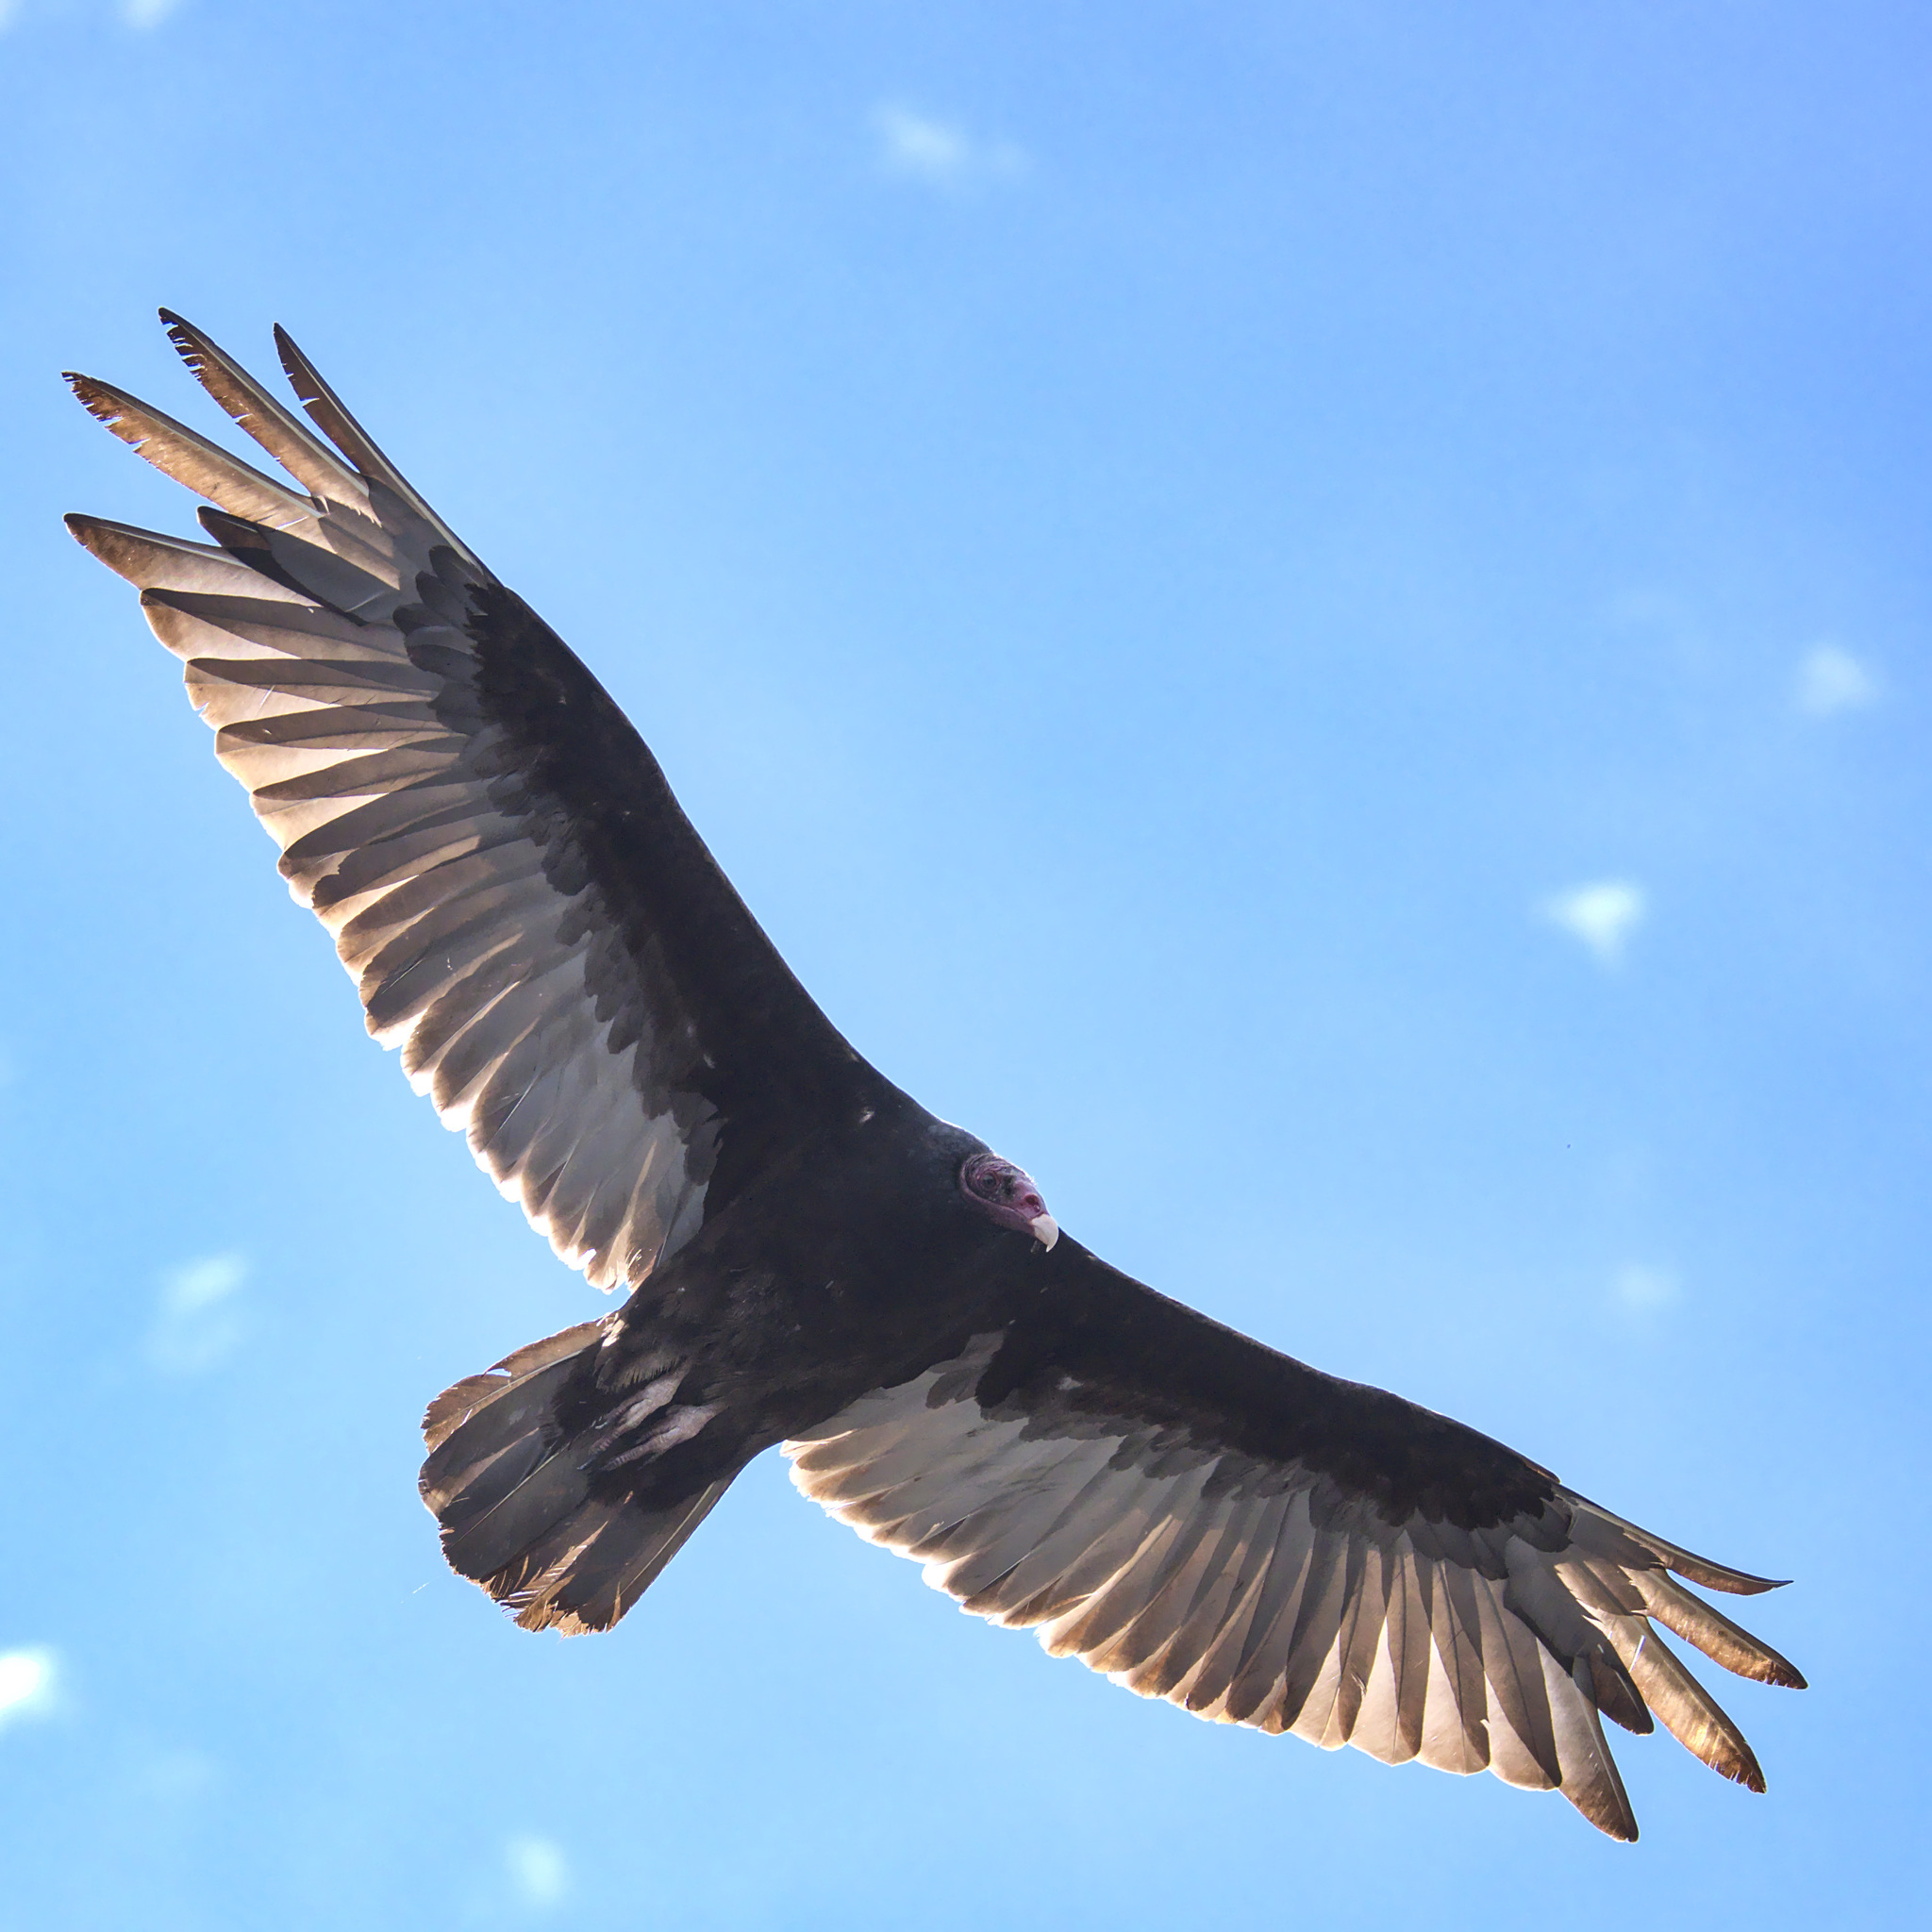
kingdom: Animalia
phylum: Chordata
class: Aves
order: Accipitriformes
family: Cathartidae
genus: Cathartes
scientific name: Cathartes aura
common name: Turkey vulture
